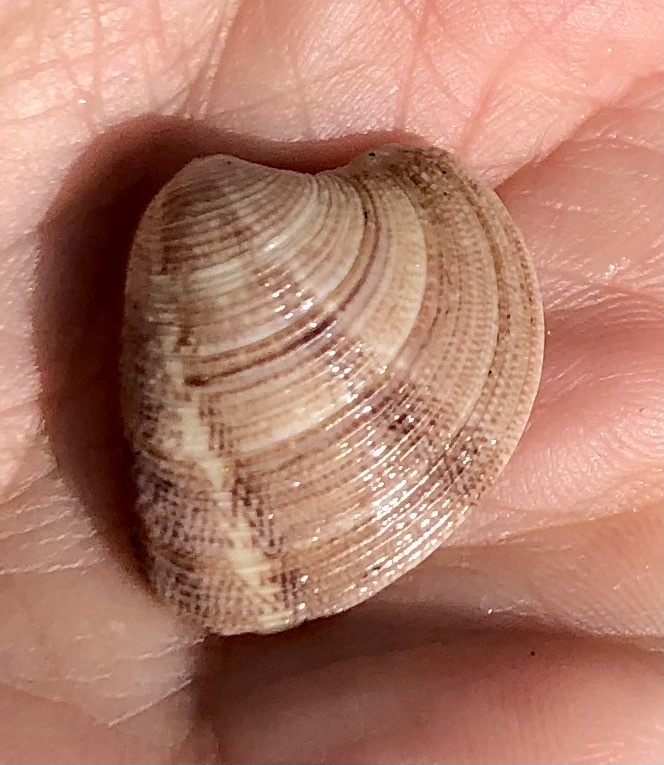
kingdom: Animalia
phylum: Mollusca
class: Bivalvia
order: Venerida
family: Veneridae
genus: Chamelea
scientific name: Chamelea striatula
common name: Striped venus
